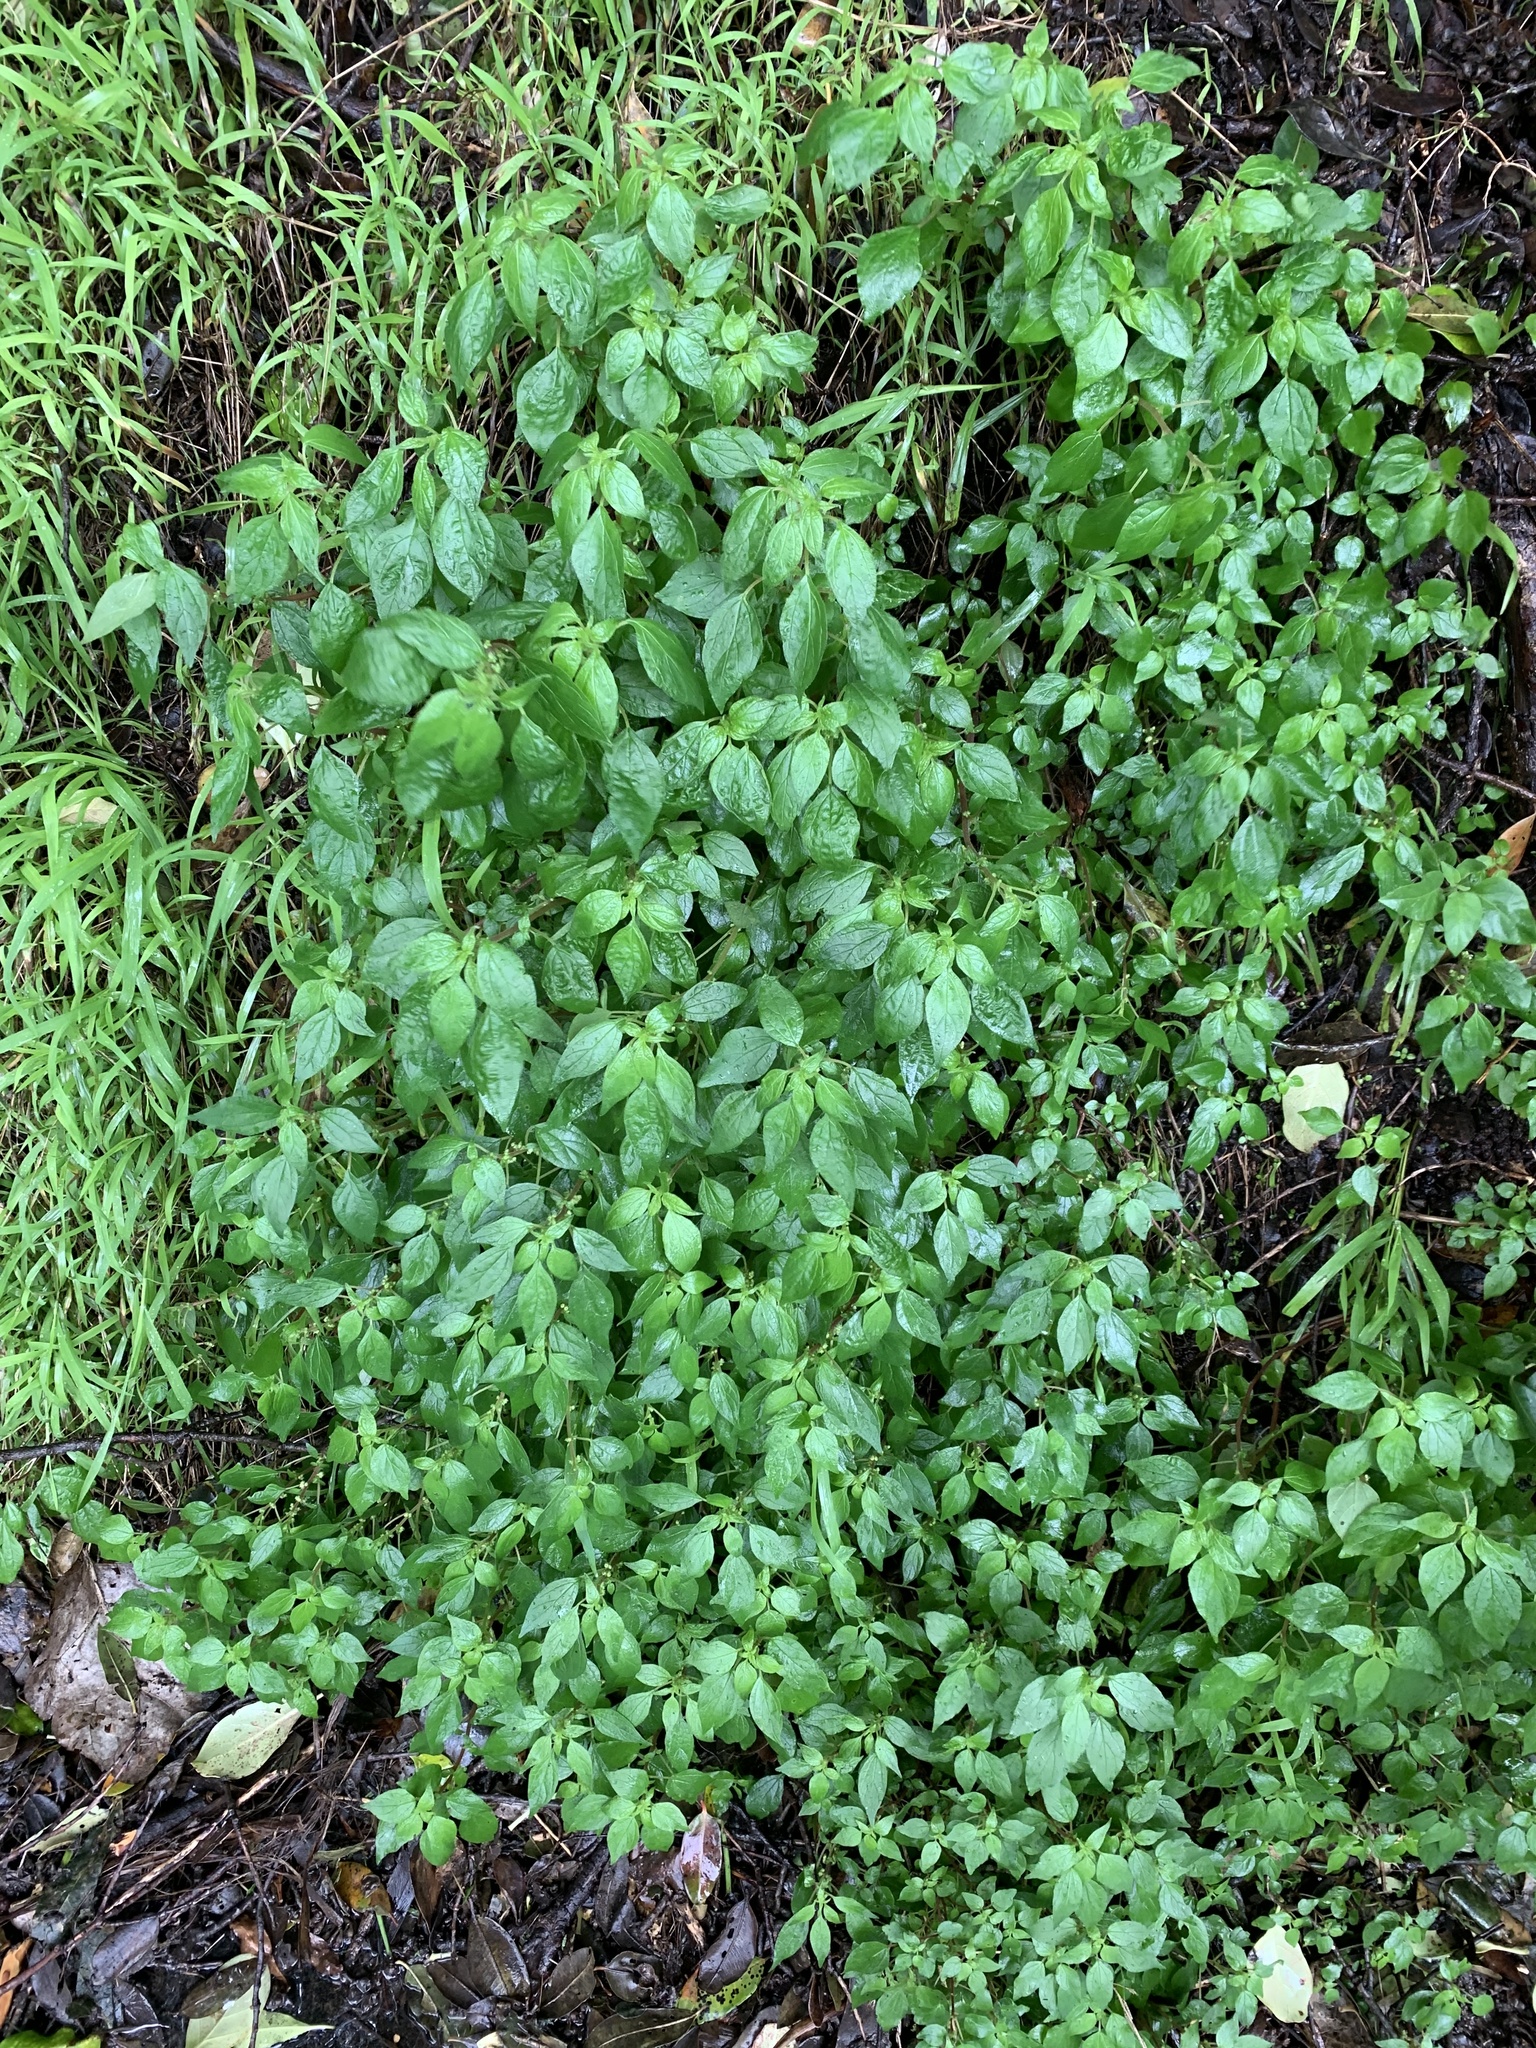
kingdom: Plantae
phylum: Tracheophyta
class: Magnoliopsida
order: Rosales
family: Urticaceae
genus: Parietaria
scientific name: Parietaria judaica
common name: Pellitory-of-the-wall
